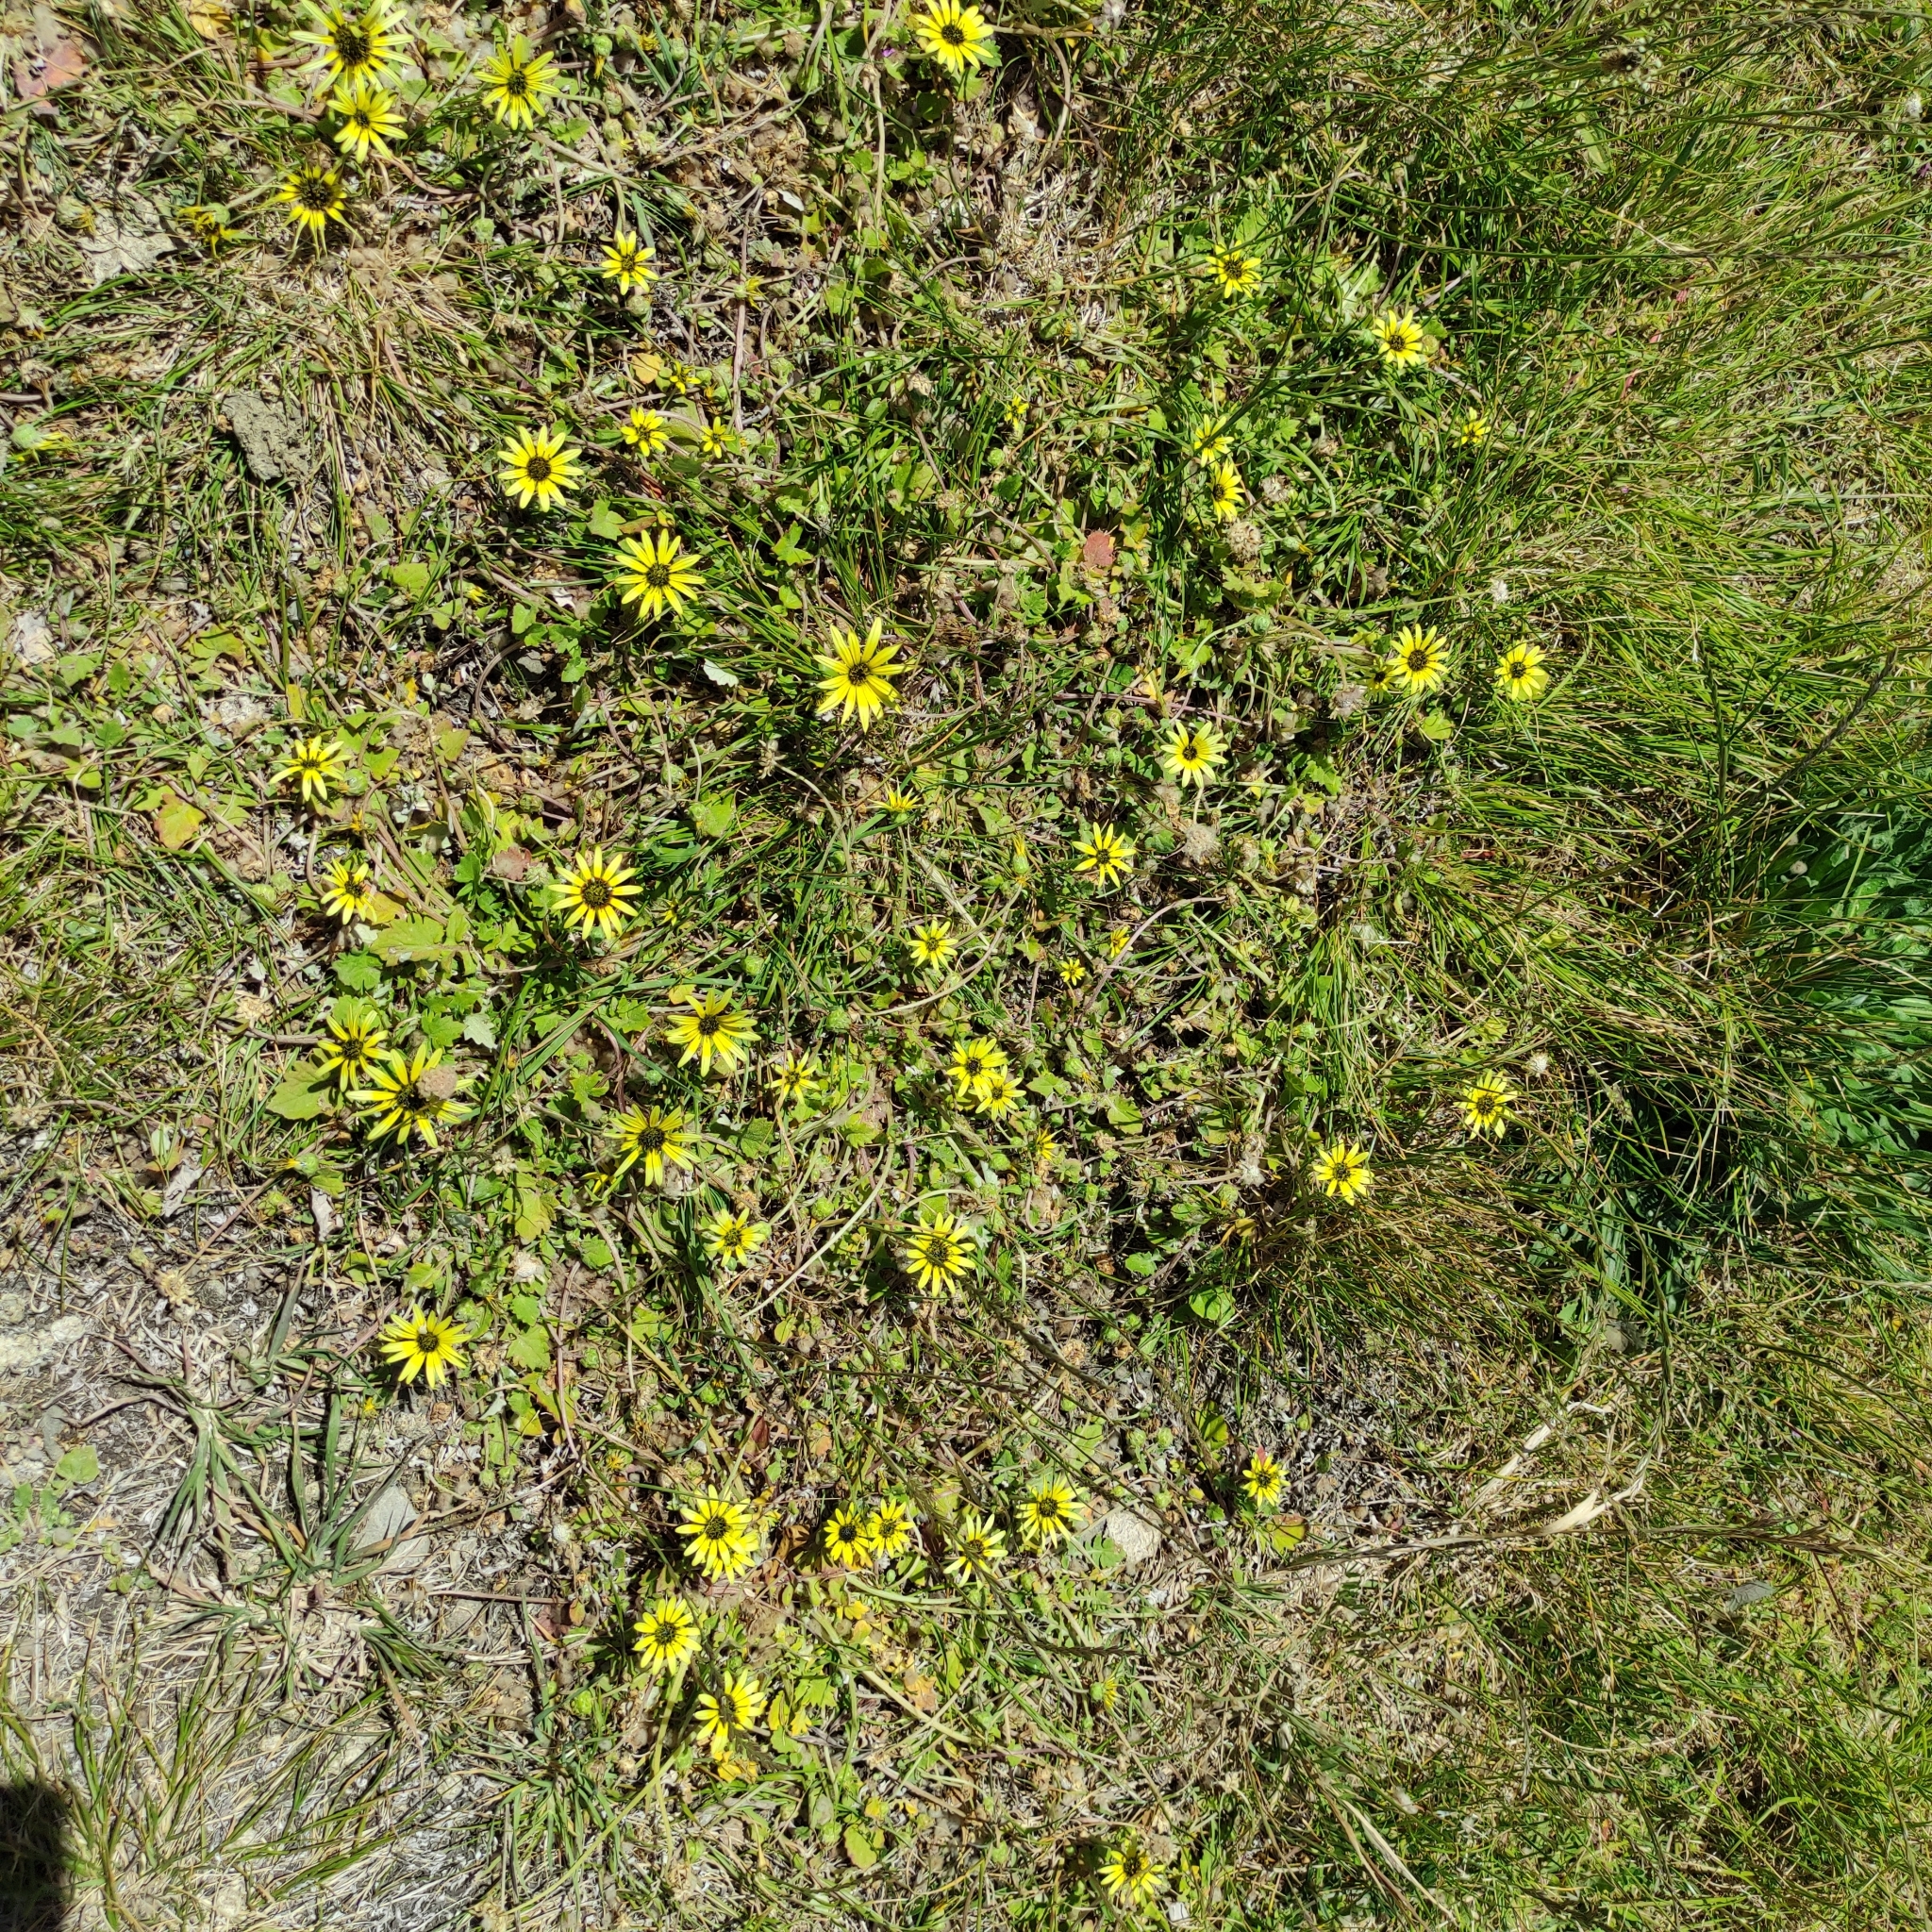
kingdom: Plantae
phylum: Tracheophyta
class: Magnoliopsida
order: Asterales
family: Asteraceae
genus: Arctotheca
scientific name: Arctotheca calendula
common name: Capeweed
